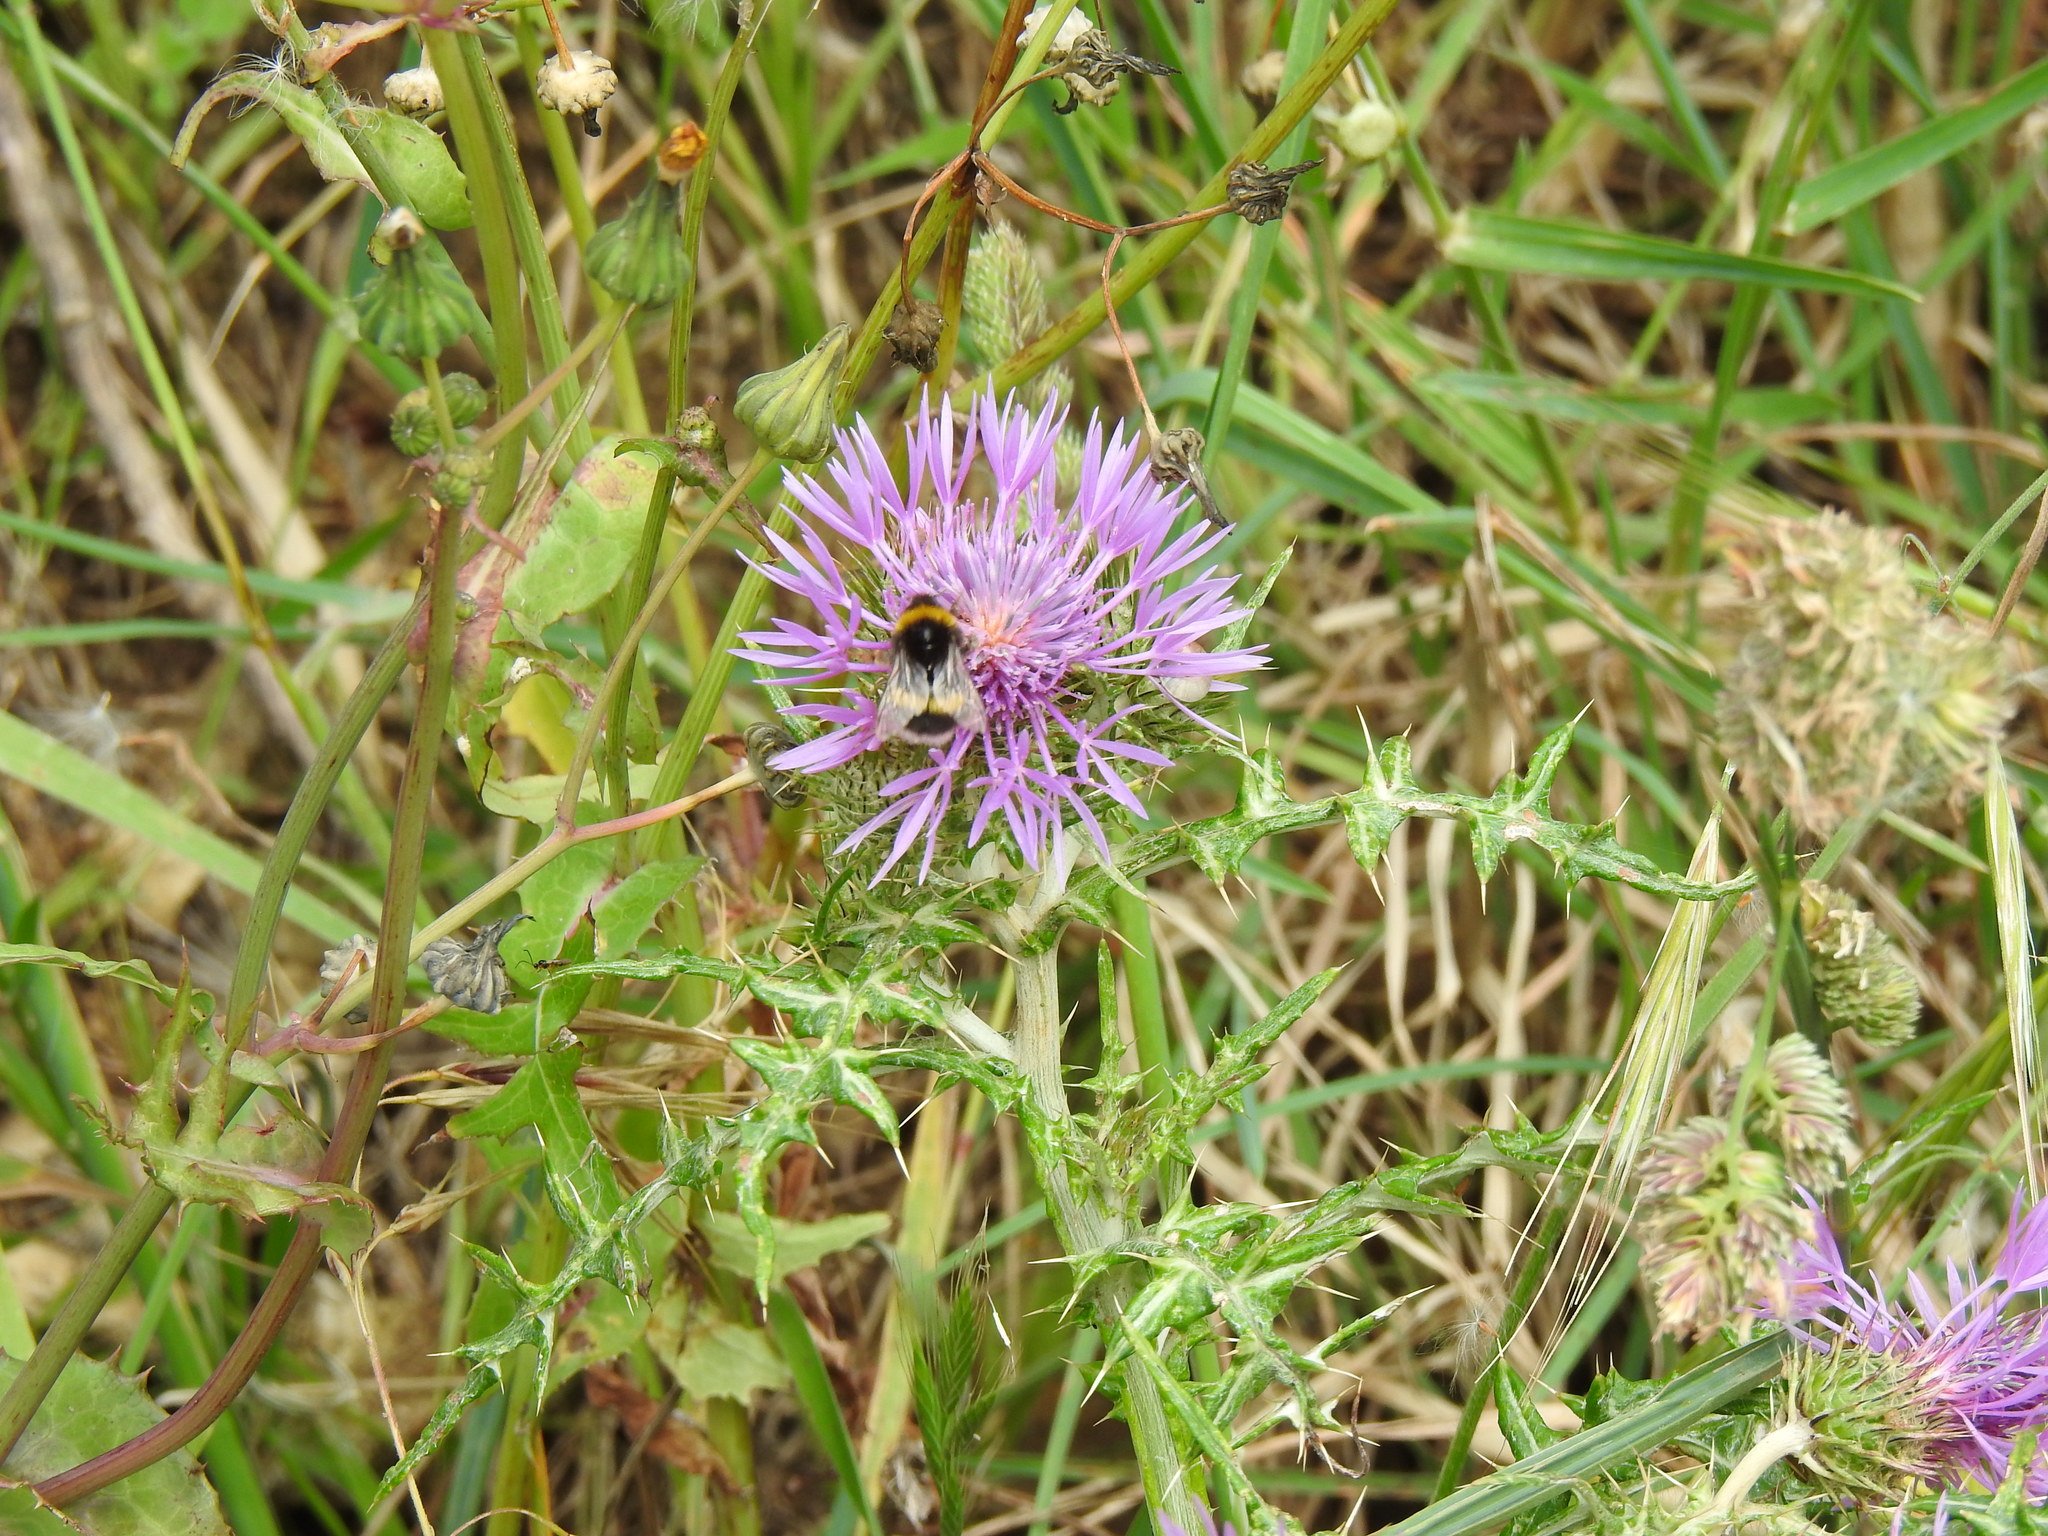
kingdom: Plantae
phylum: Tracheophyta
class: Magnoliopsida
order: Asterales
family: Asteraceae
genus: Galactites
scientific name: Galactites tomentosa
